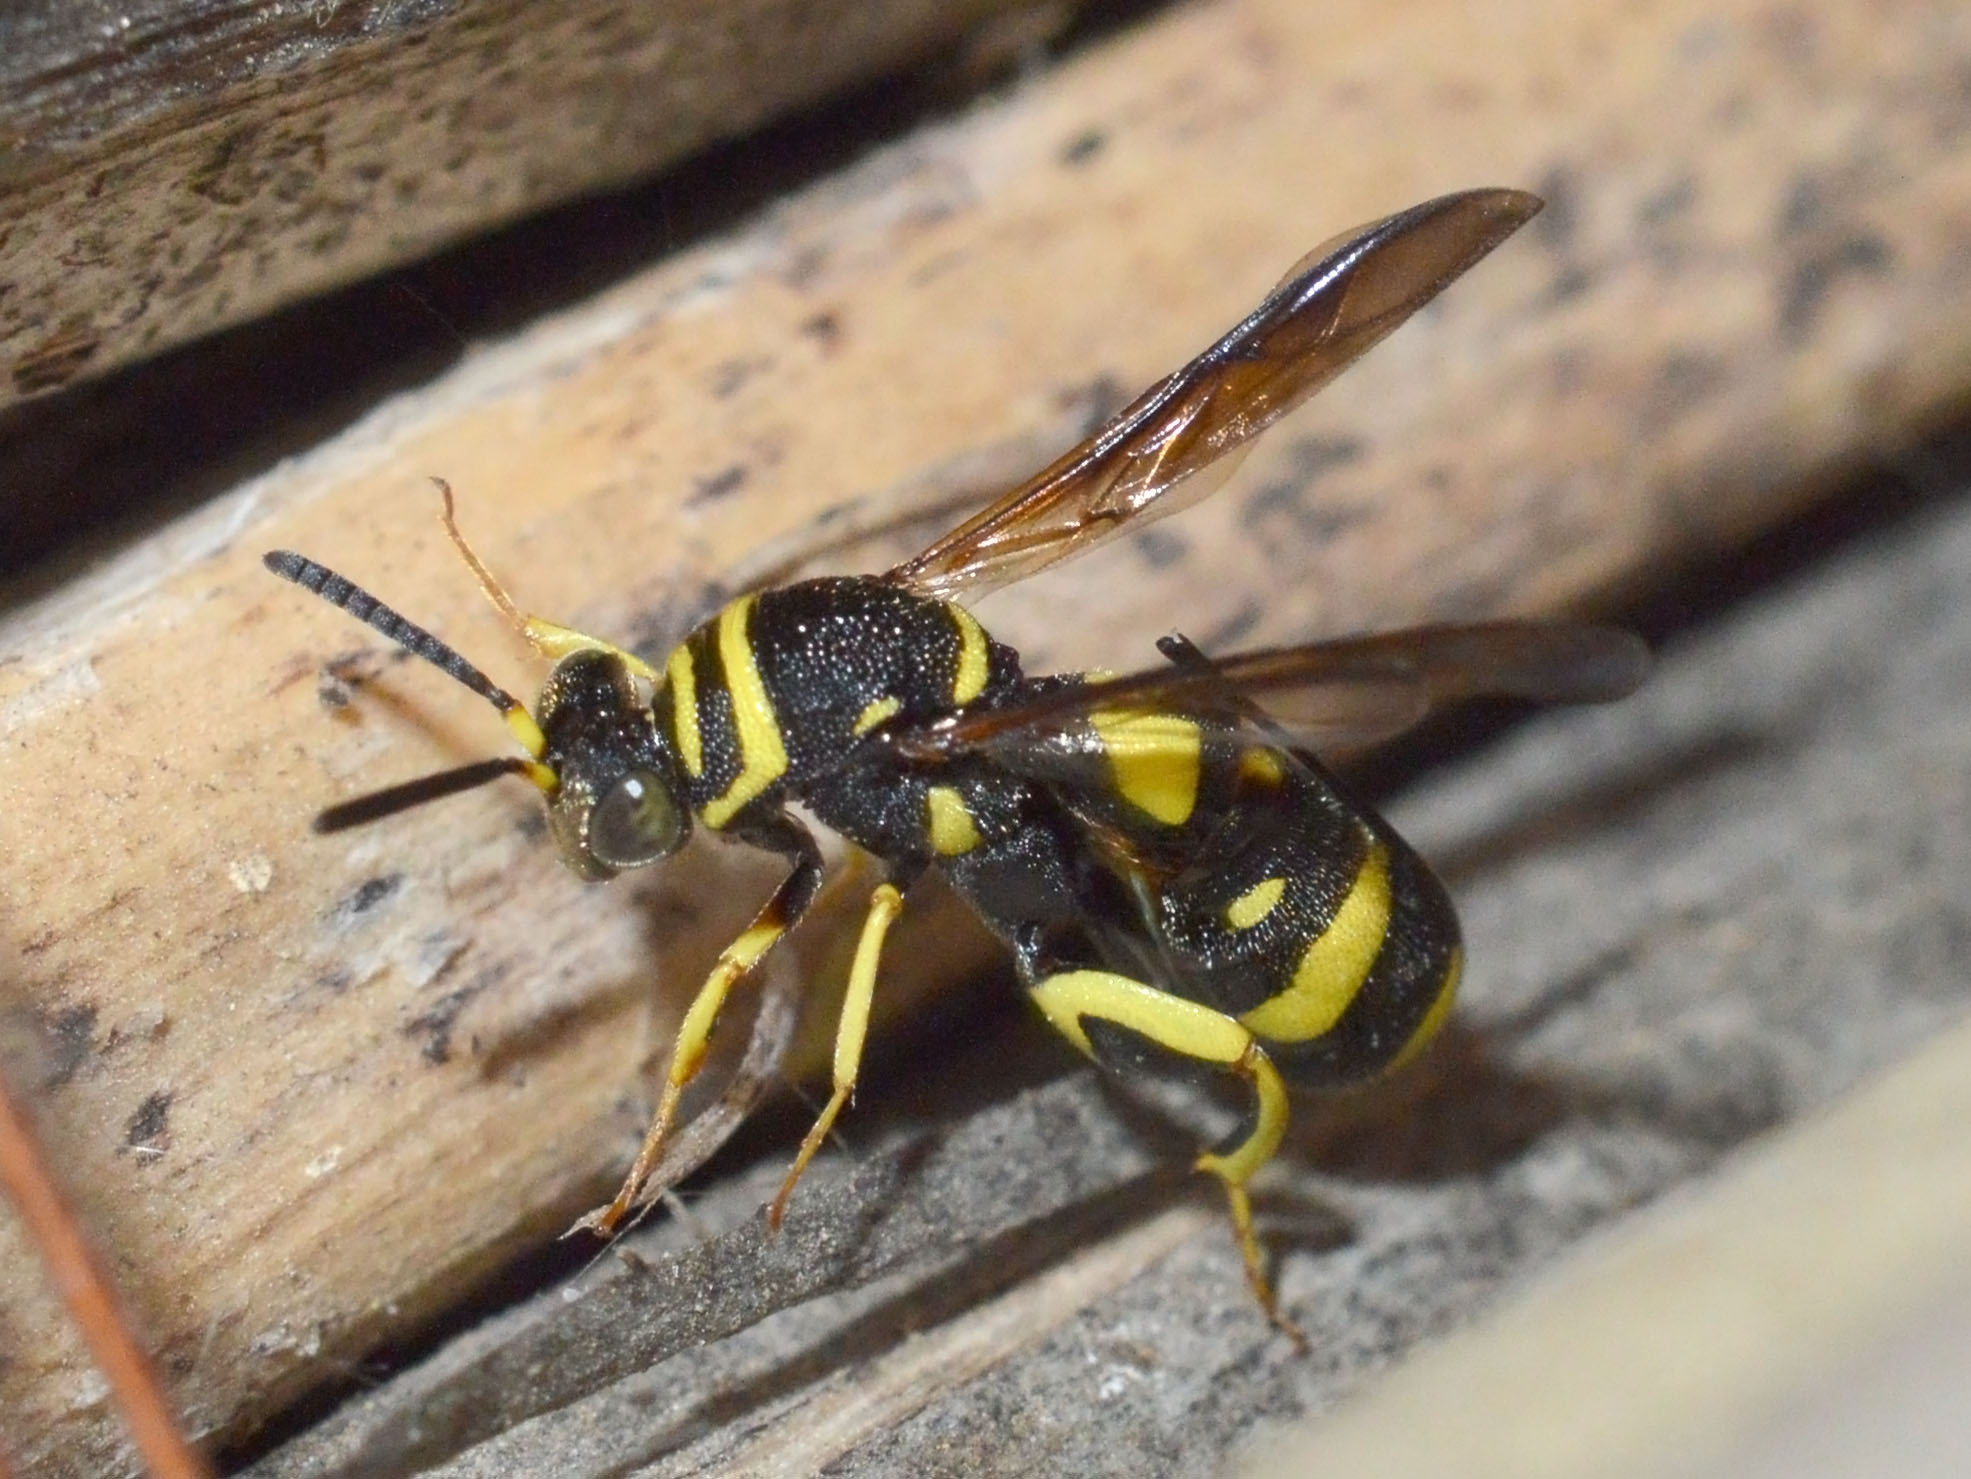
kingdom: Animalia
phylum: Arthropoda
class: Insecta
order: Hymenoptera
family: Leucospidae
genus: Leucospis
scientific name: Leucospis dorsigera
